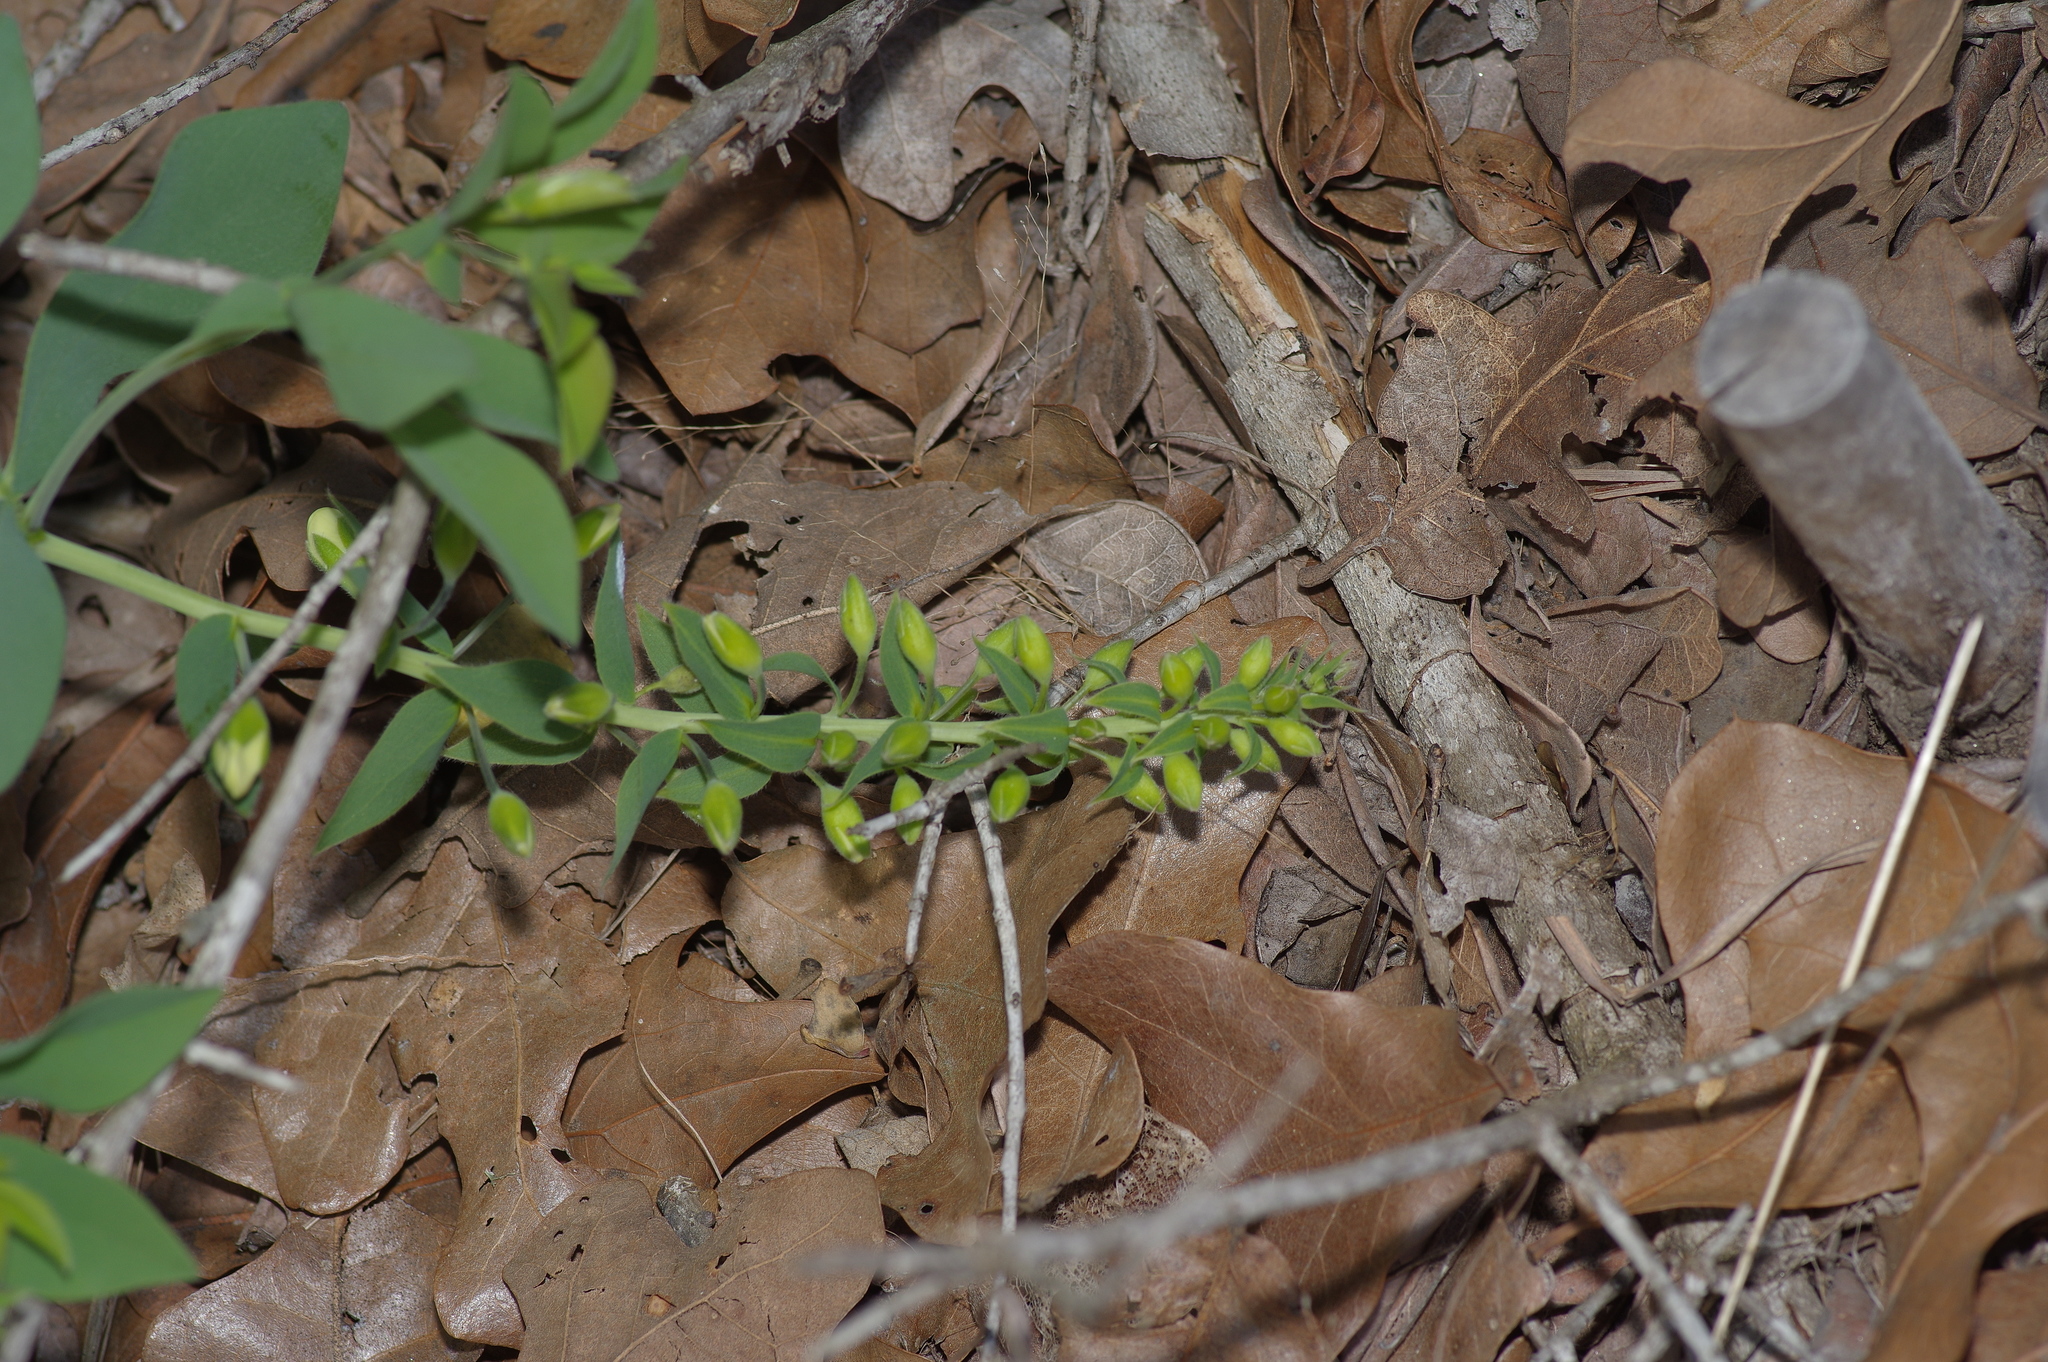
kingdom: Plantae
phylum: Tracheophyta
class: Magnoliopsida
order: Fabales
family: Fabaceae
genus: Baptisia
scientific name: Baptisia bracteata
